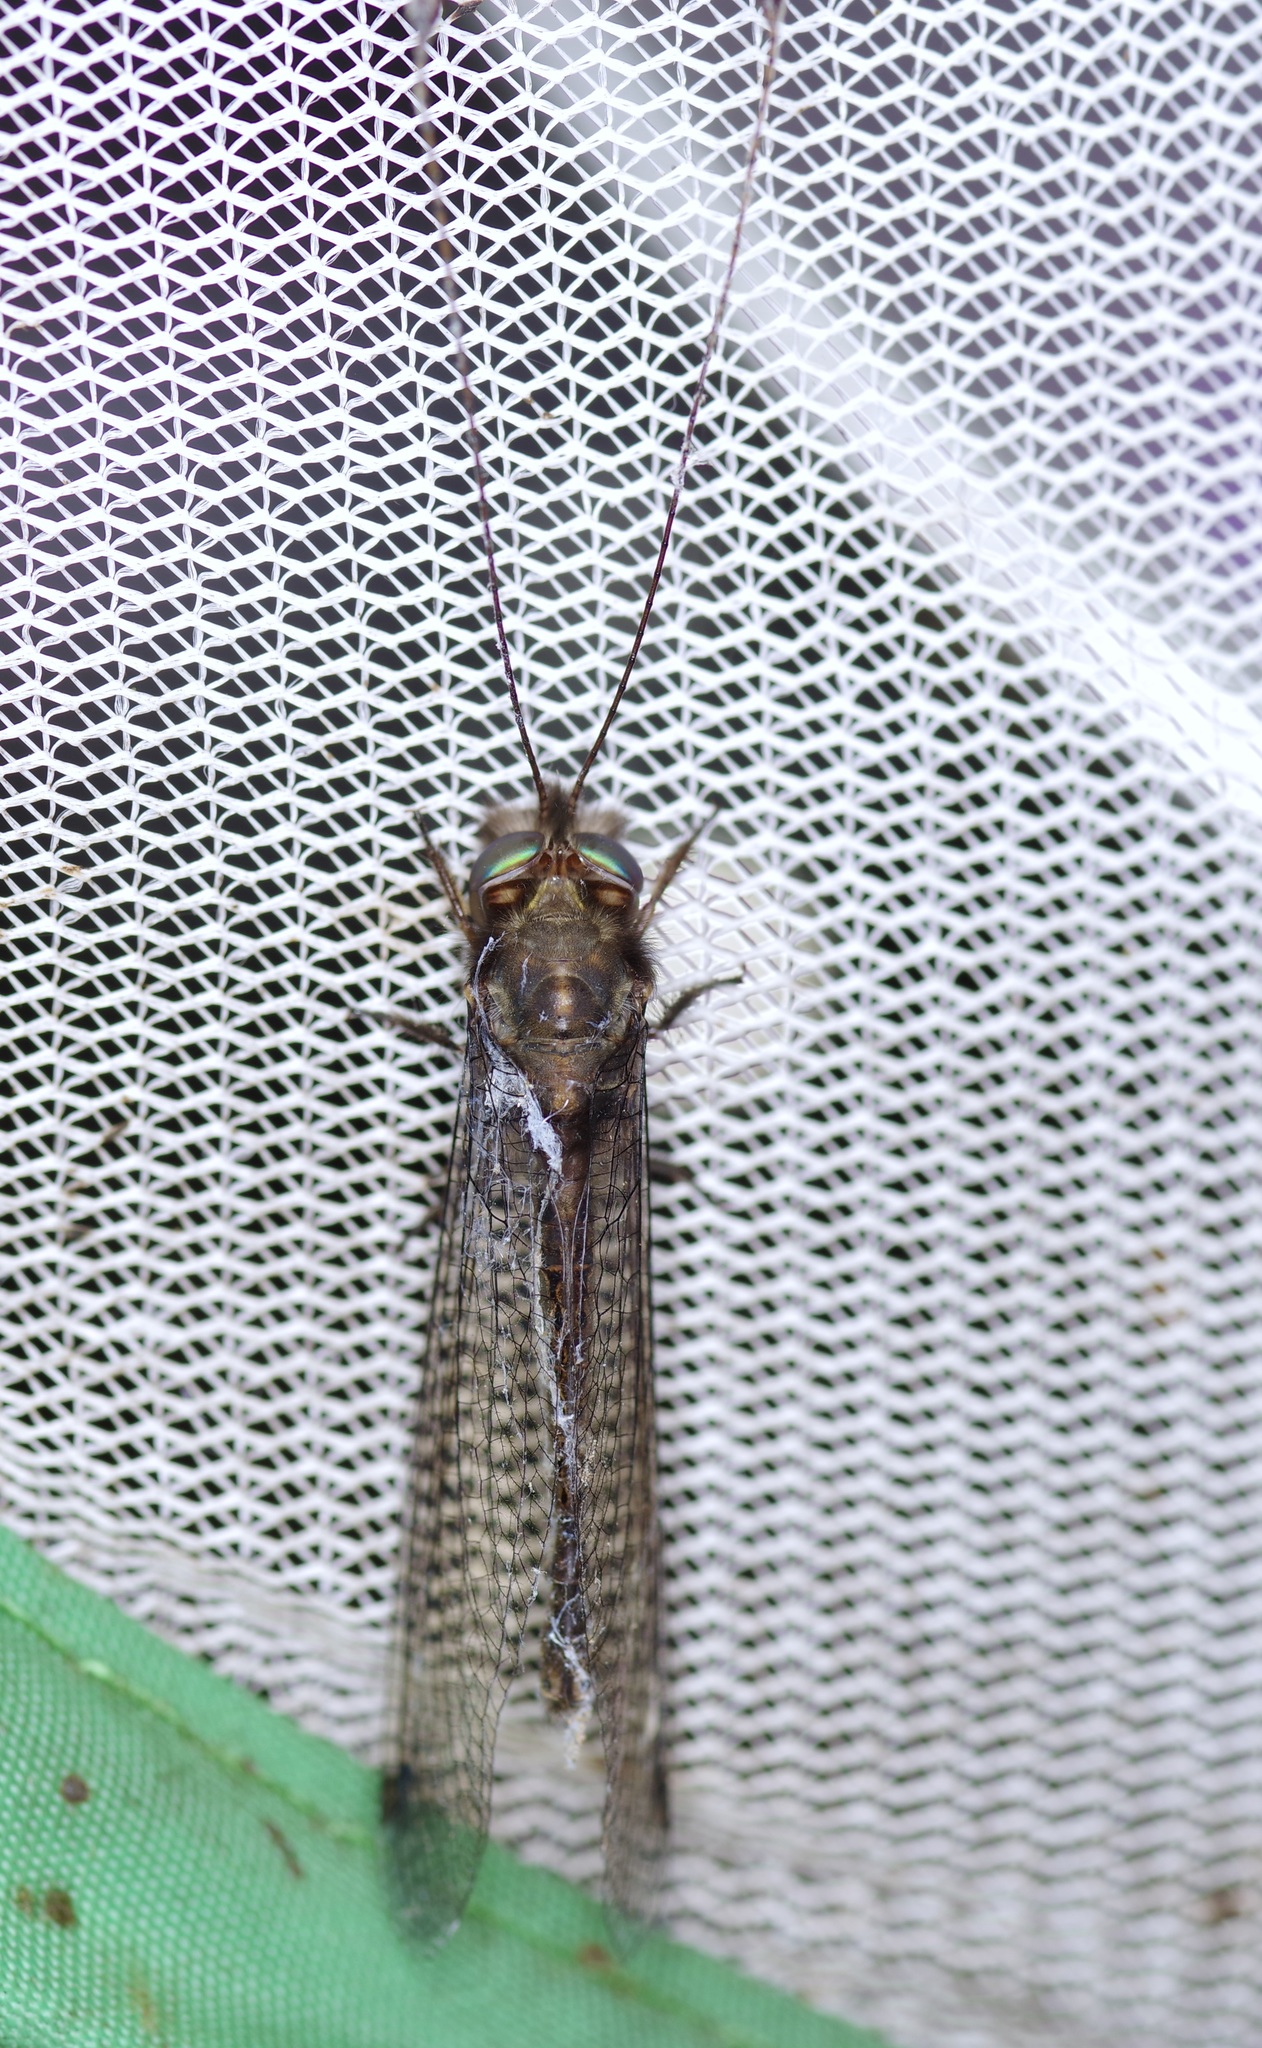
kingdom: Animalia
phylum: Arthropoda
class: Insecta
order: Neuroptera
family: Ascalaphidae
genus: Ululodes
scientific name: Ululodes macleayanus
